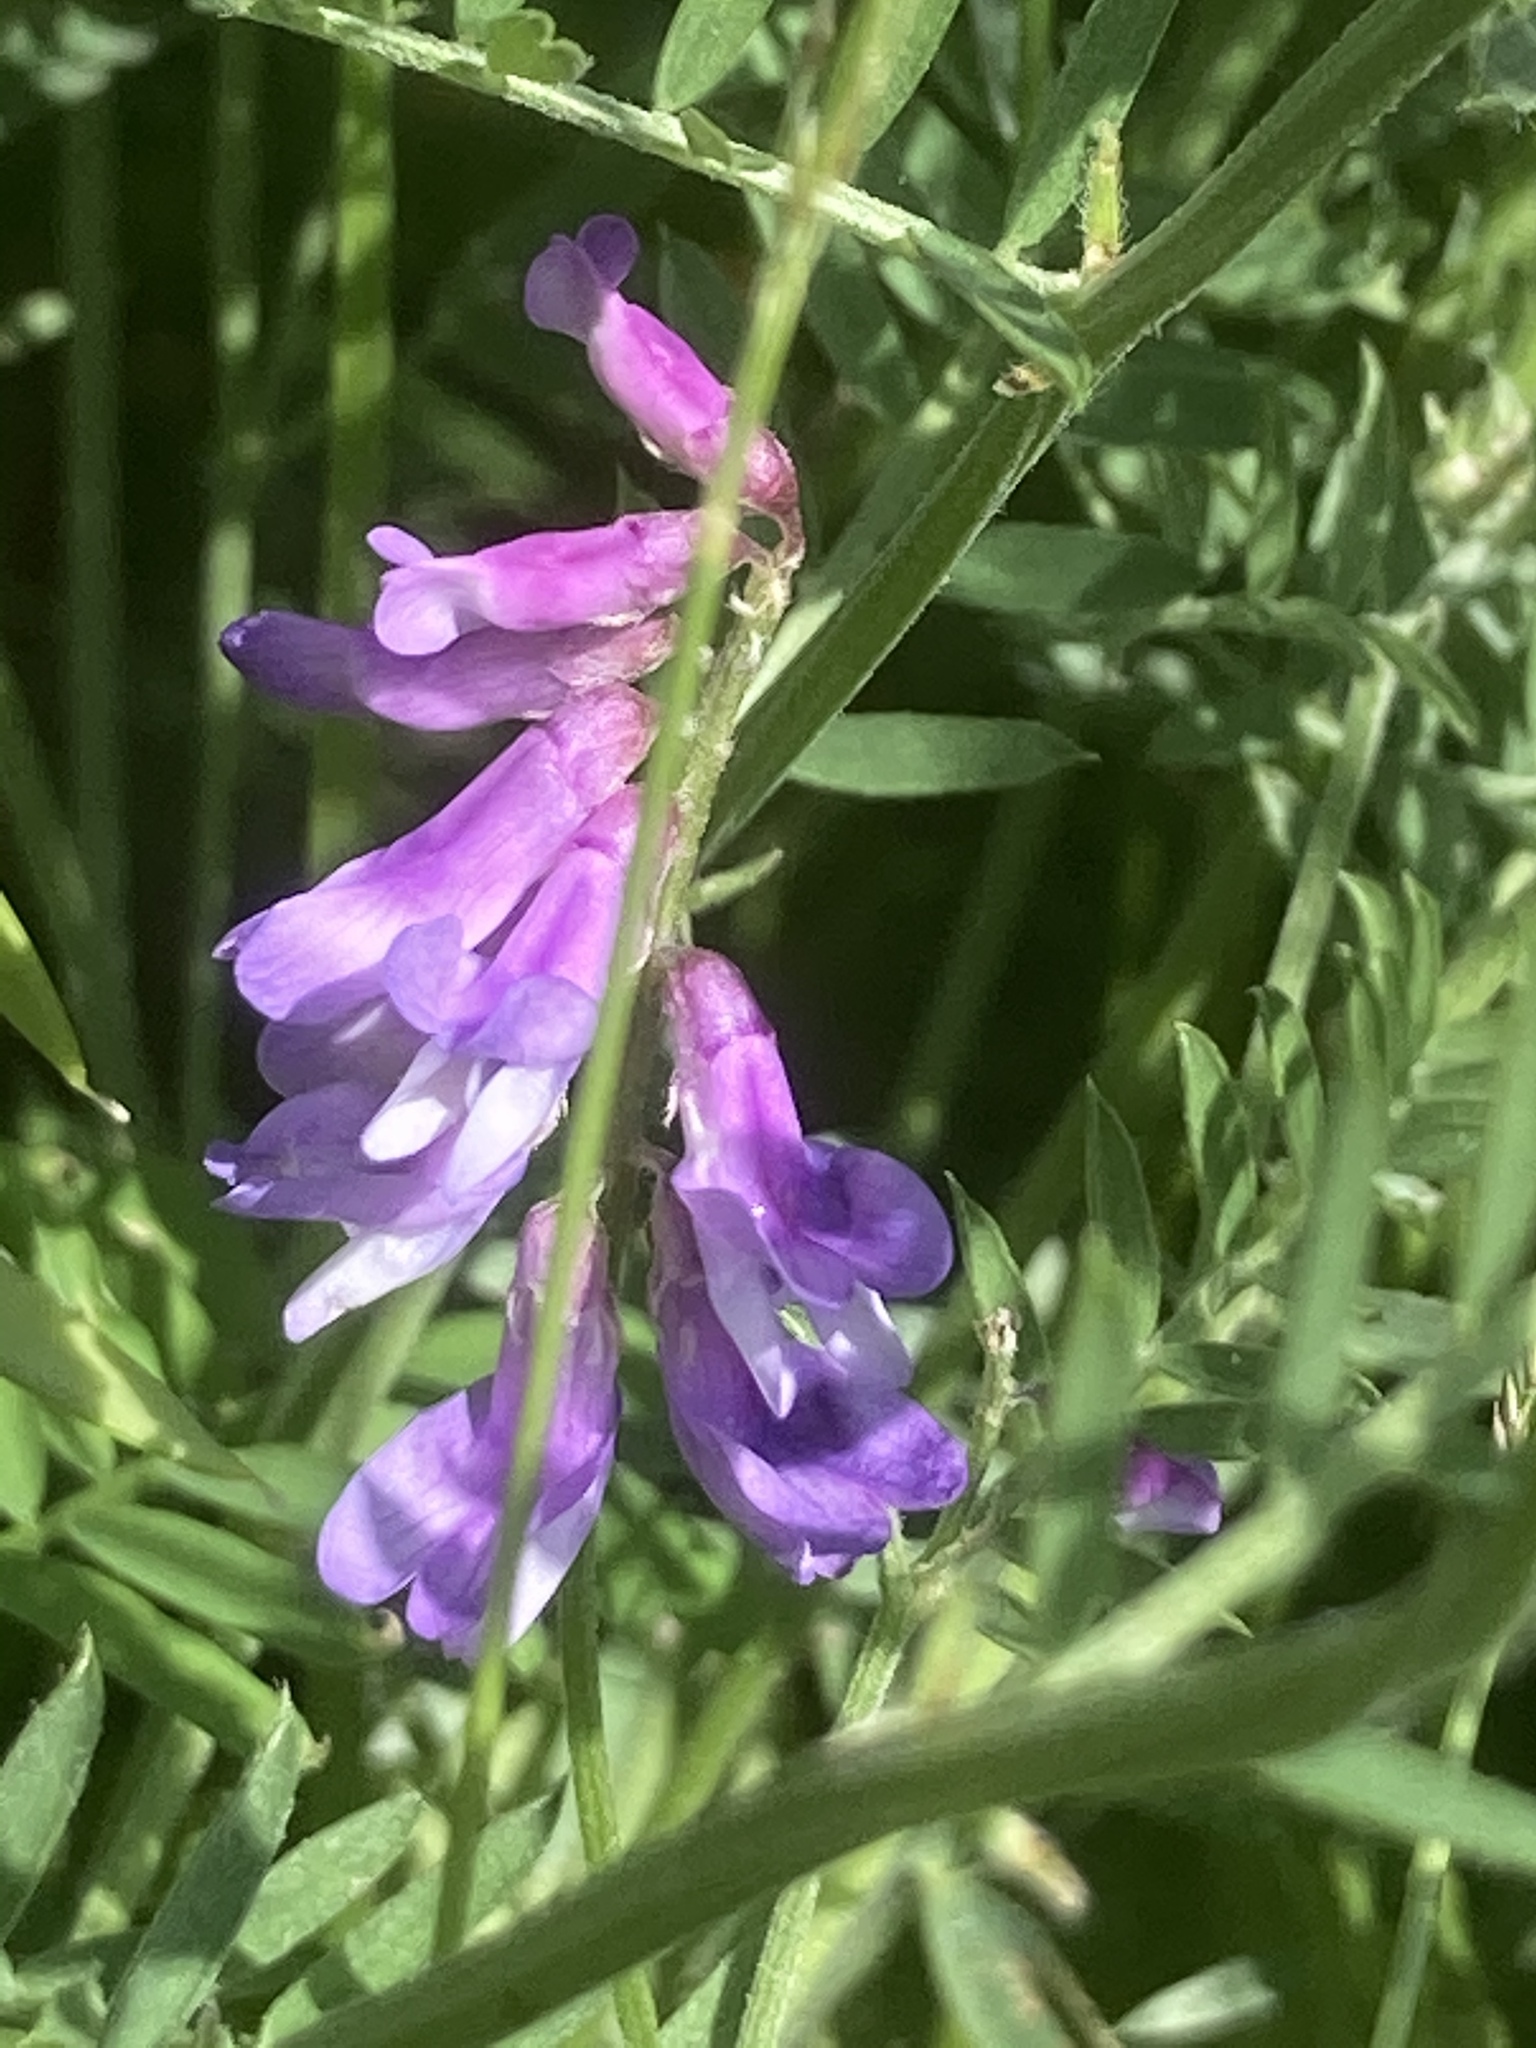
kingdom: Plantae
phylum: Tracheophyta
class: Magnoliopsida
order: Fabales
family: Fabaceae
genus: Vicia
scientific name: Vicia villosa
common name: Fodder vetch
